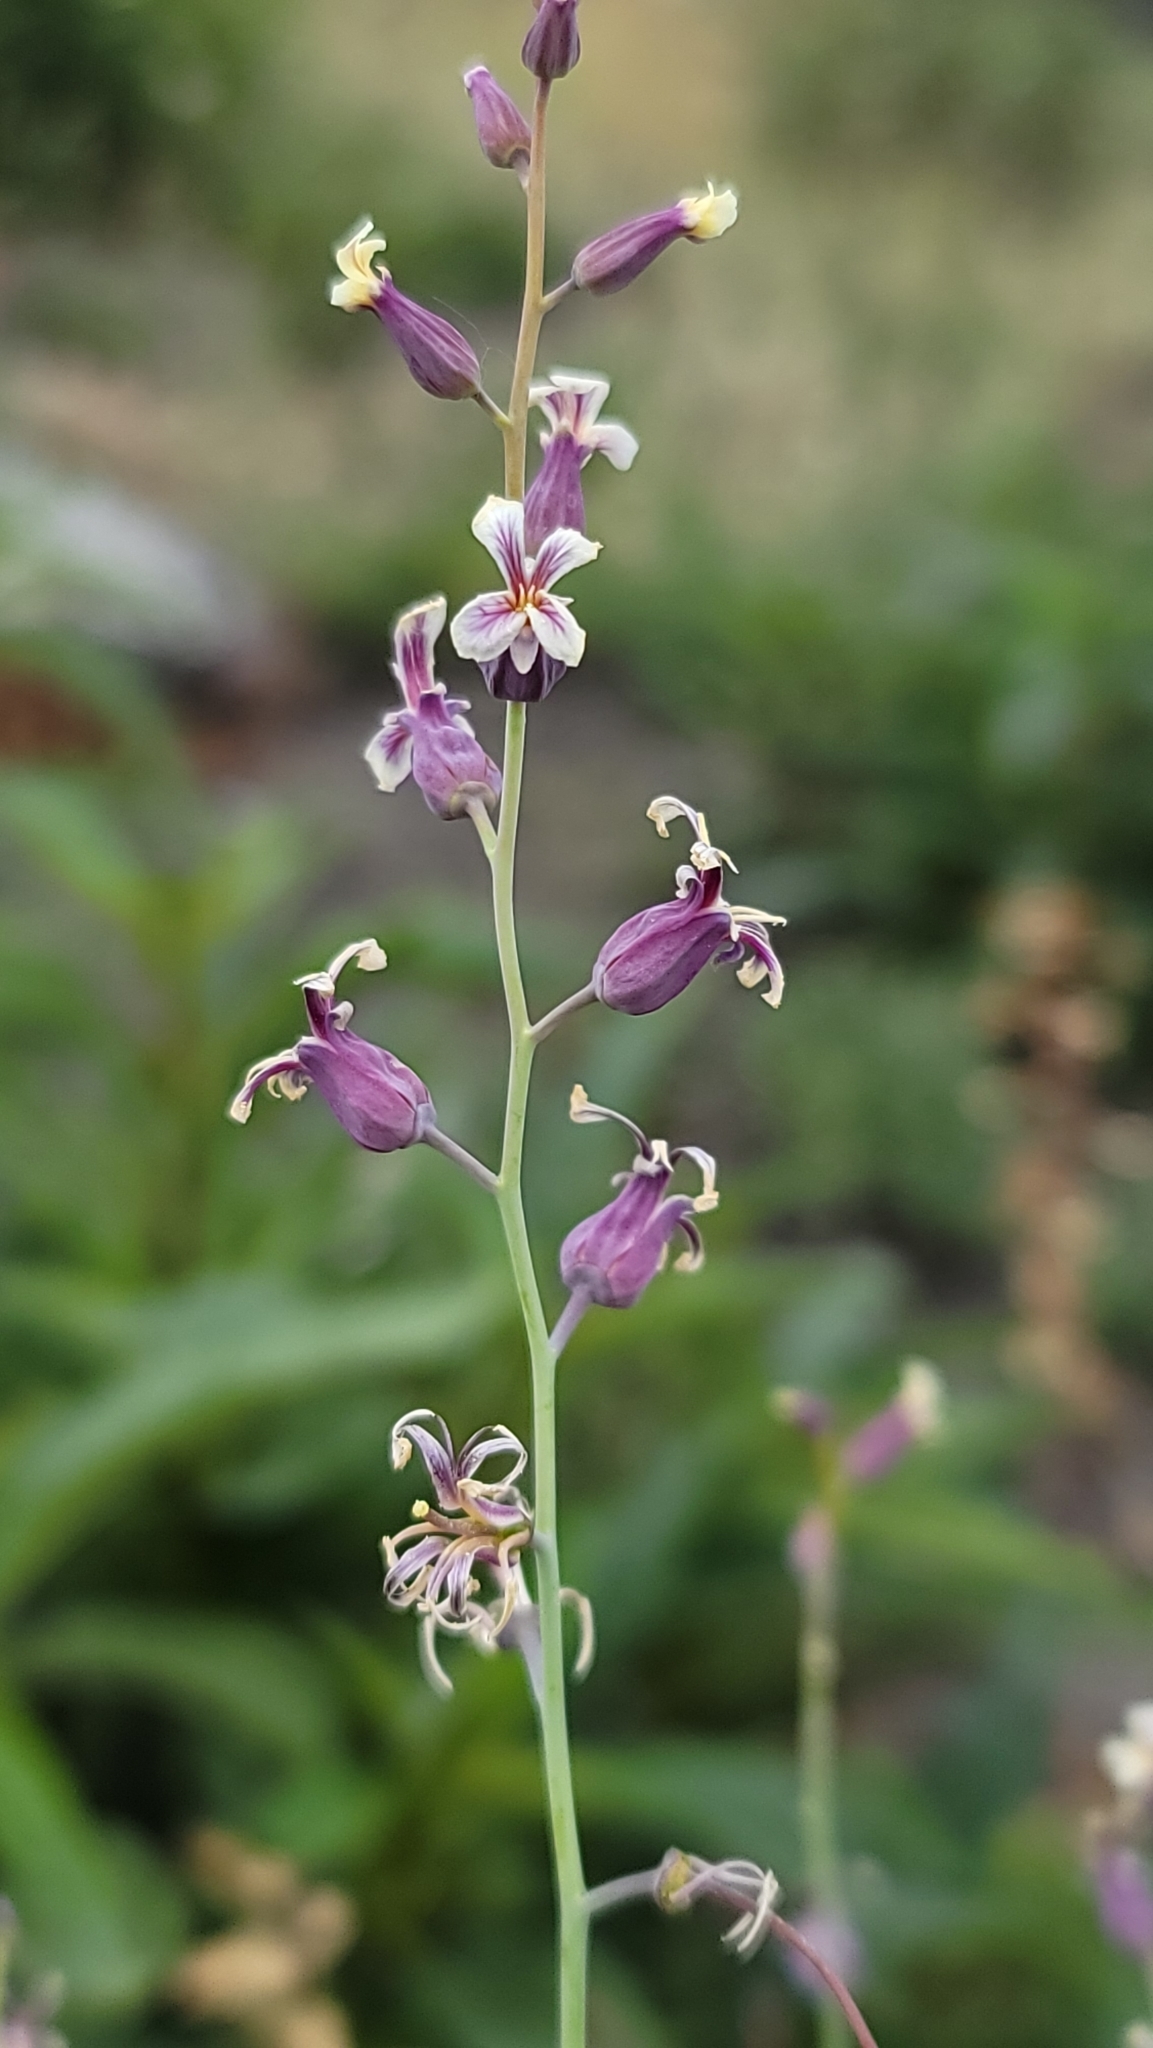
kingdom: Plantae
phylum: Tracheophyta
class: Magnoliopsida
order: Brassicales
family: Brassicaceae
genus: Streptanthus
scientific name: Streptanthus diversifolius
